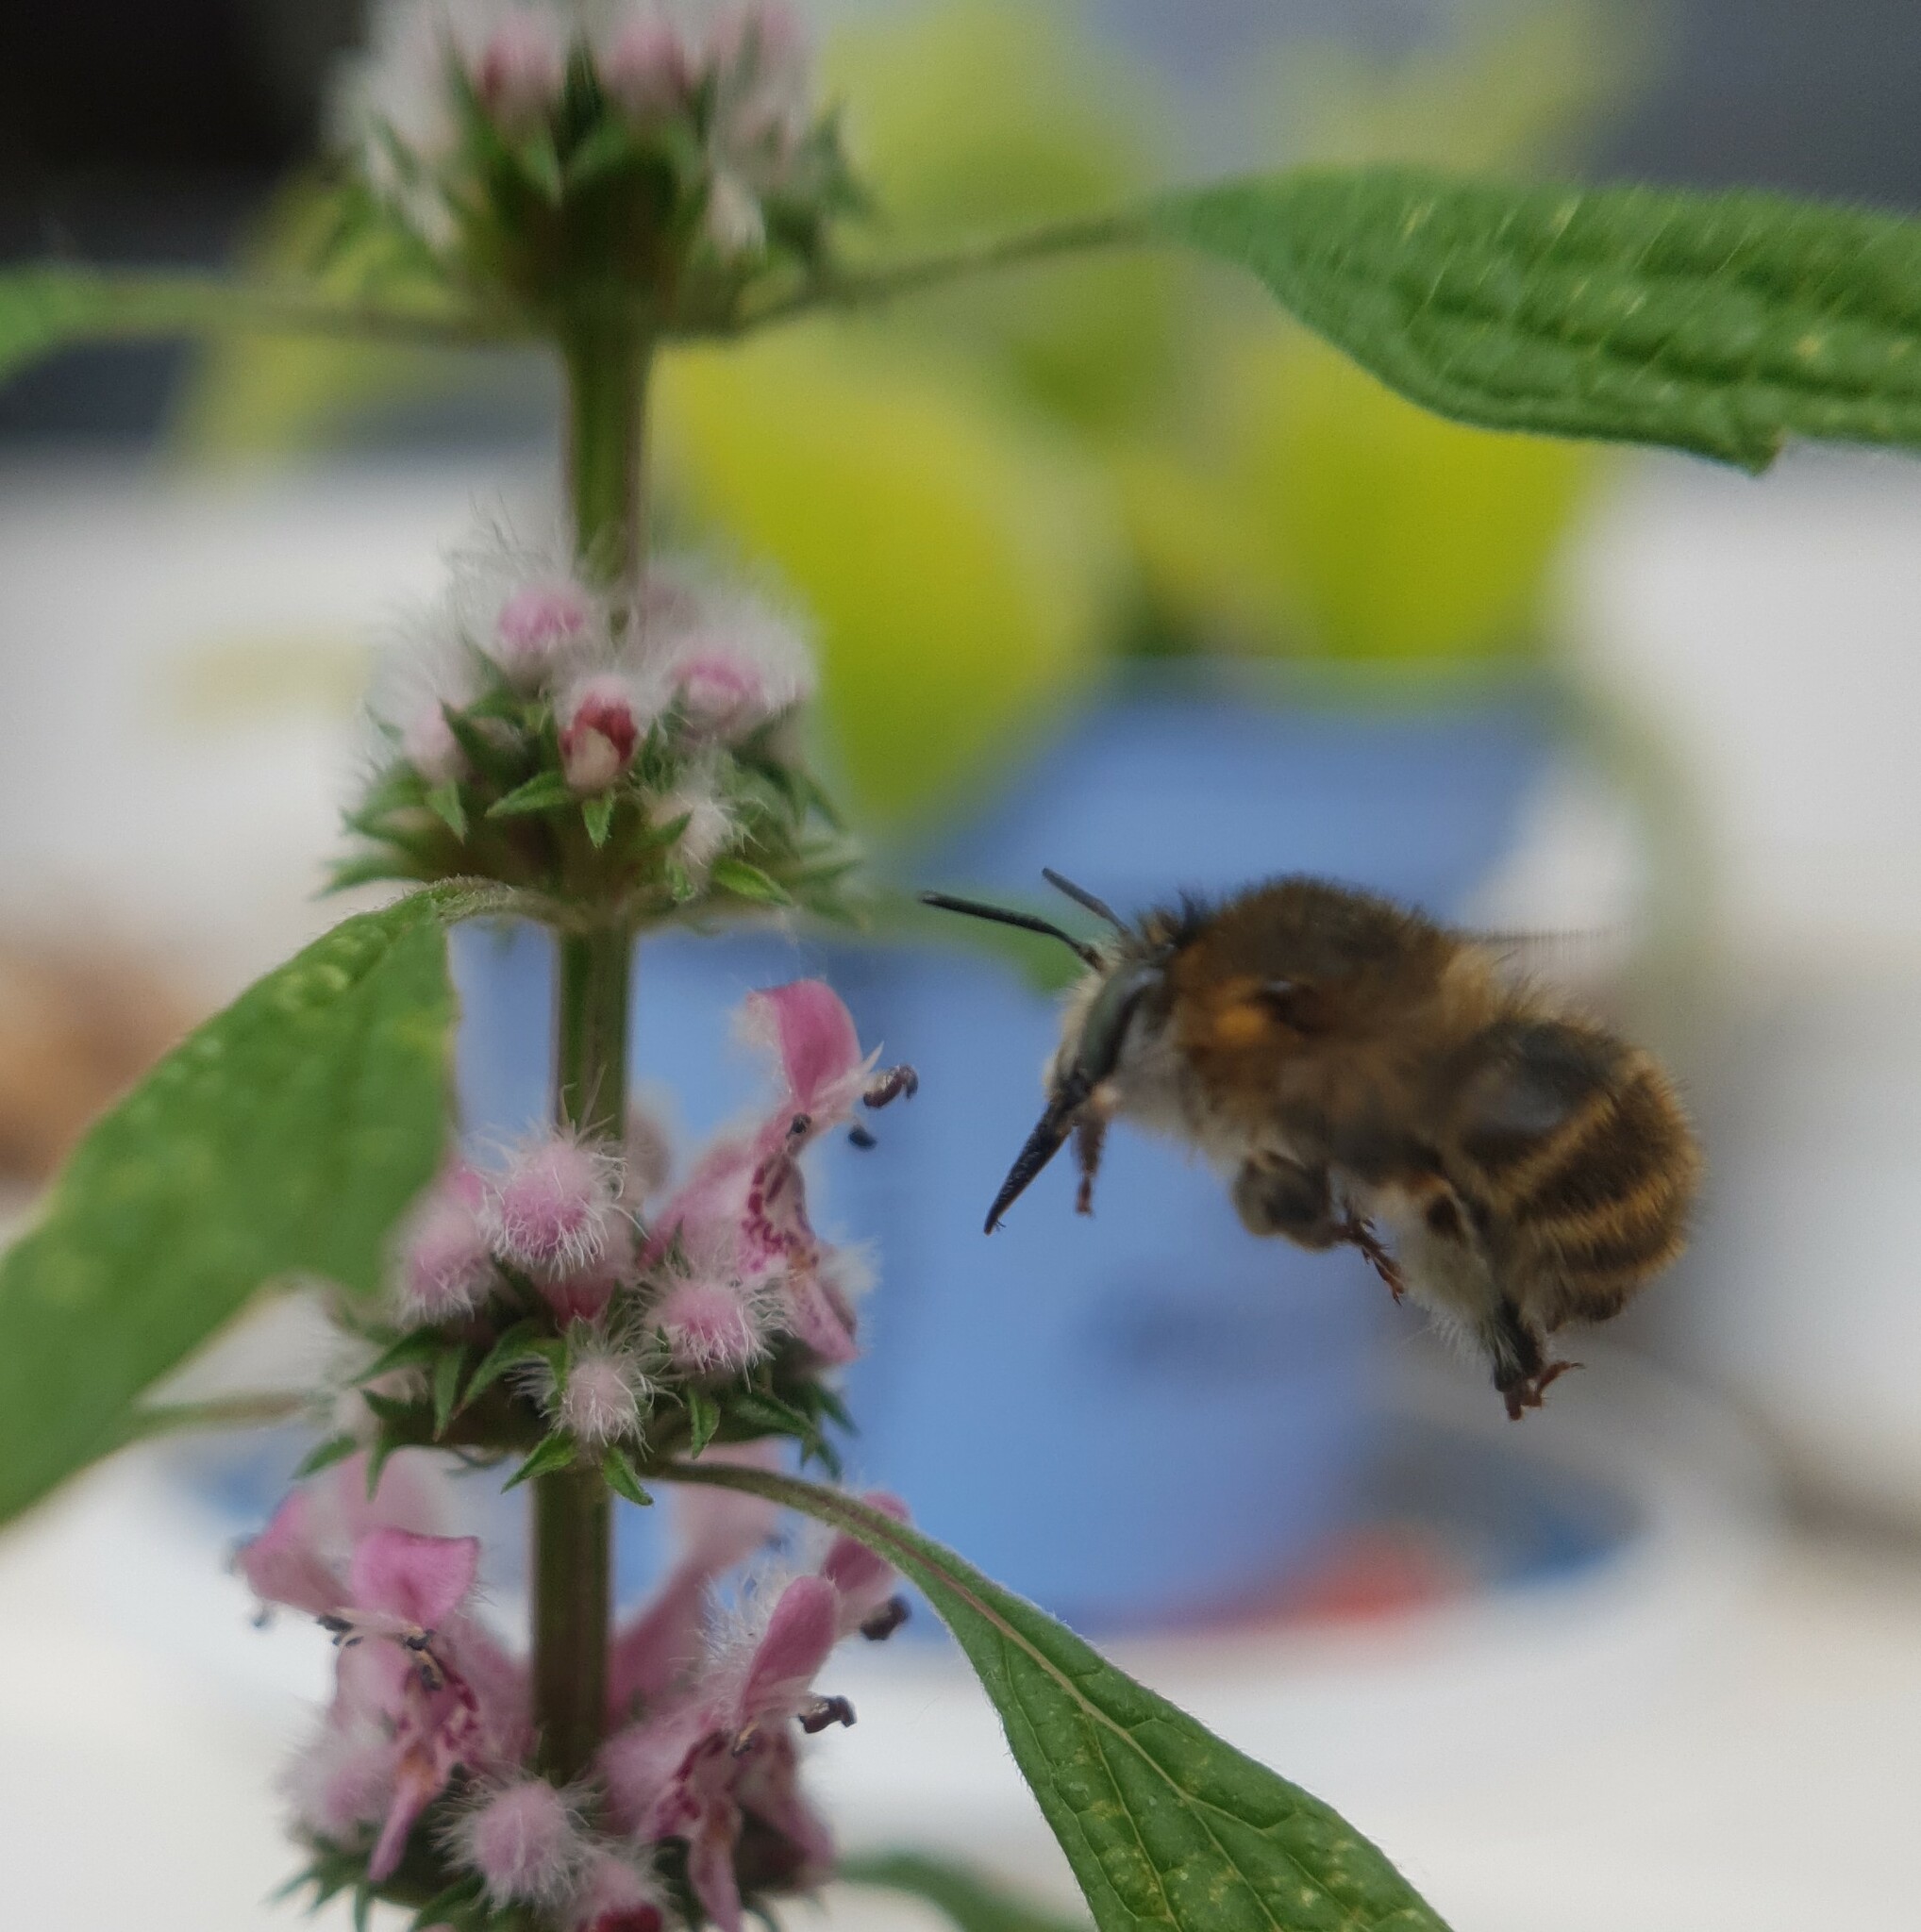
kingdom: Animalia
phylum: Arthropoda
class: Insecta
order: Hymenoptera
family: Apidae
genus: Anthophora
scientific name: Anthophora quadrimaculata
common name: Four-banded flower bee
